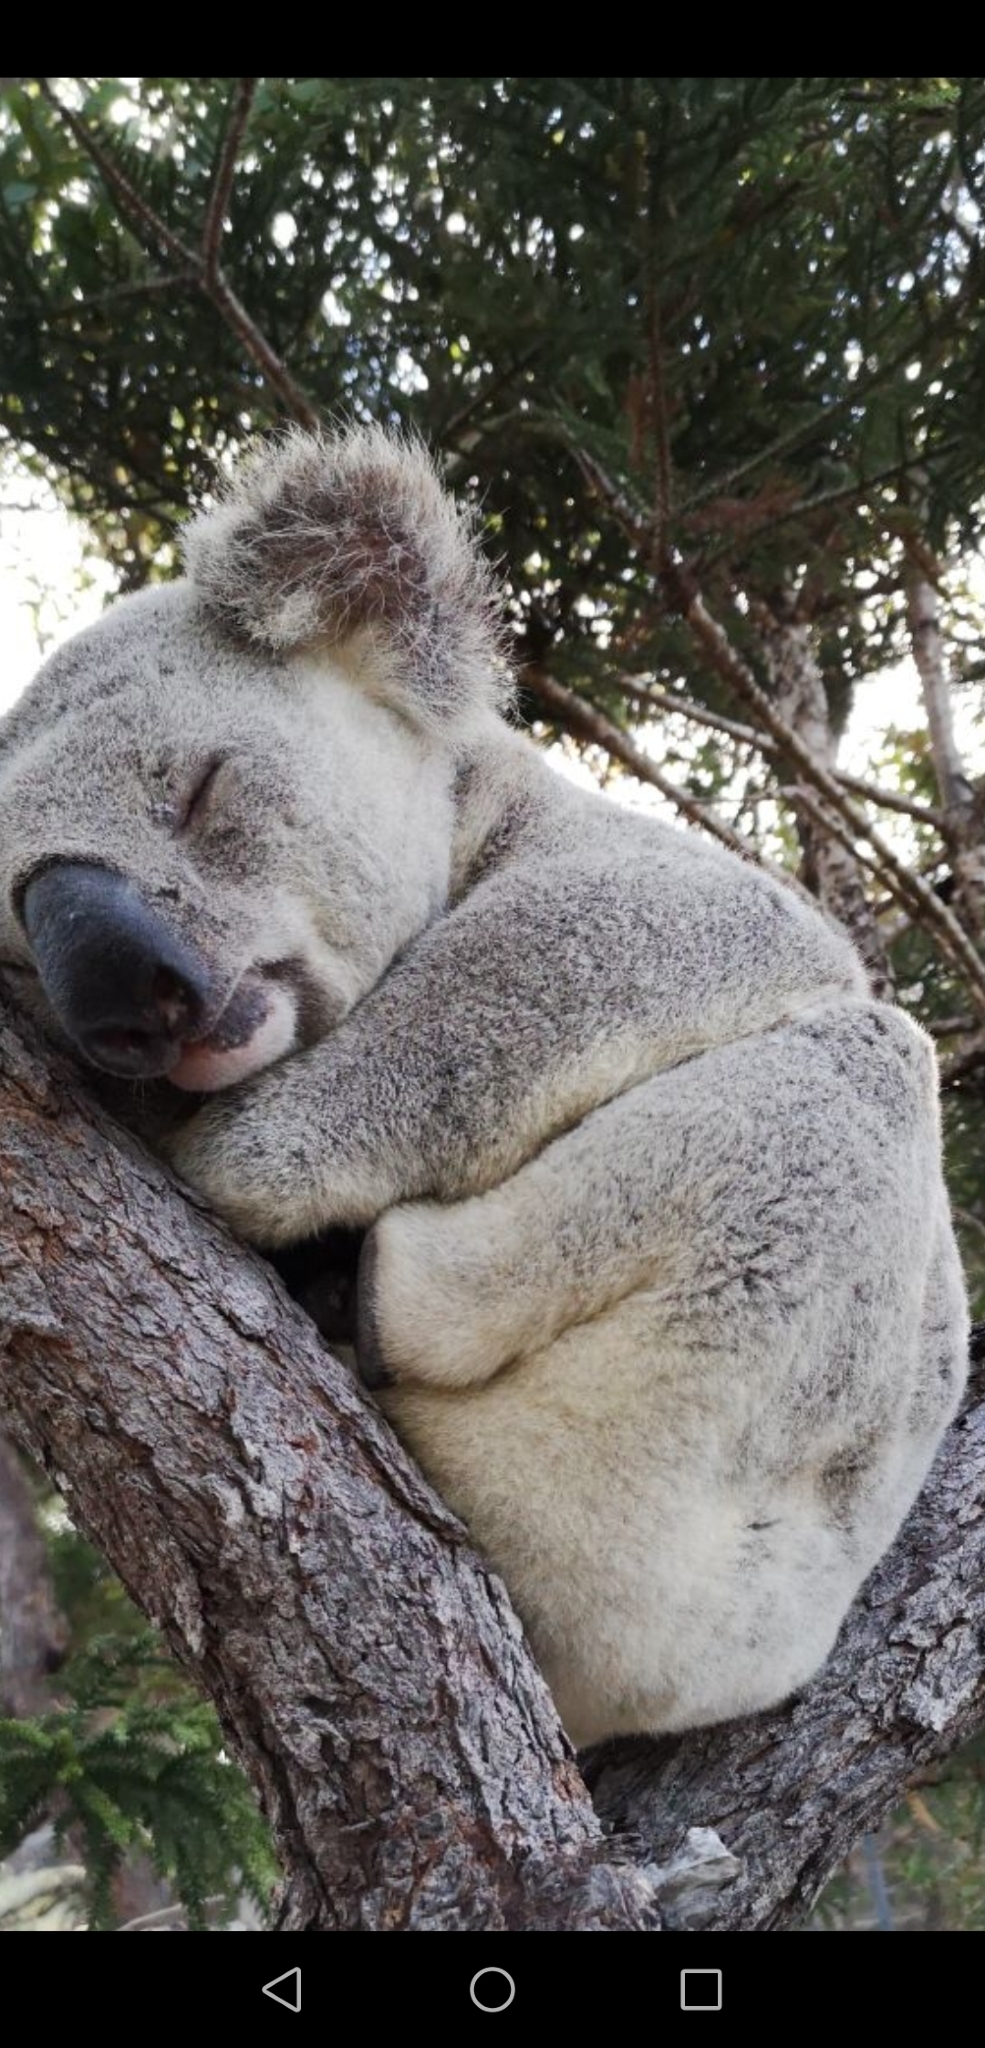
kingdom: Animalia
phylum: Chordata
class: Mammalia
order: Diprotodontia
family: Phascolarctidae
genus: Phascolarctos
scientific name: Phascolarctos cinereus
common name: Koala
